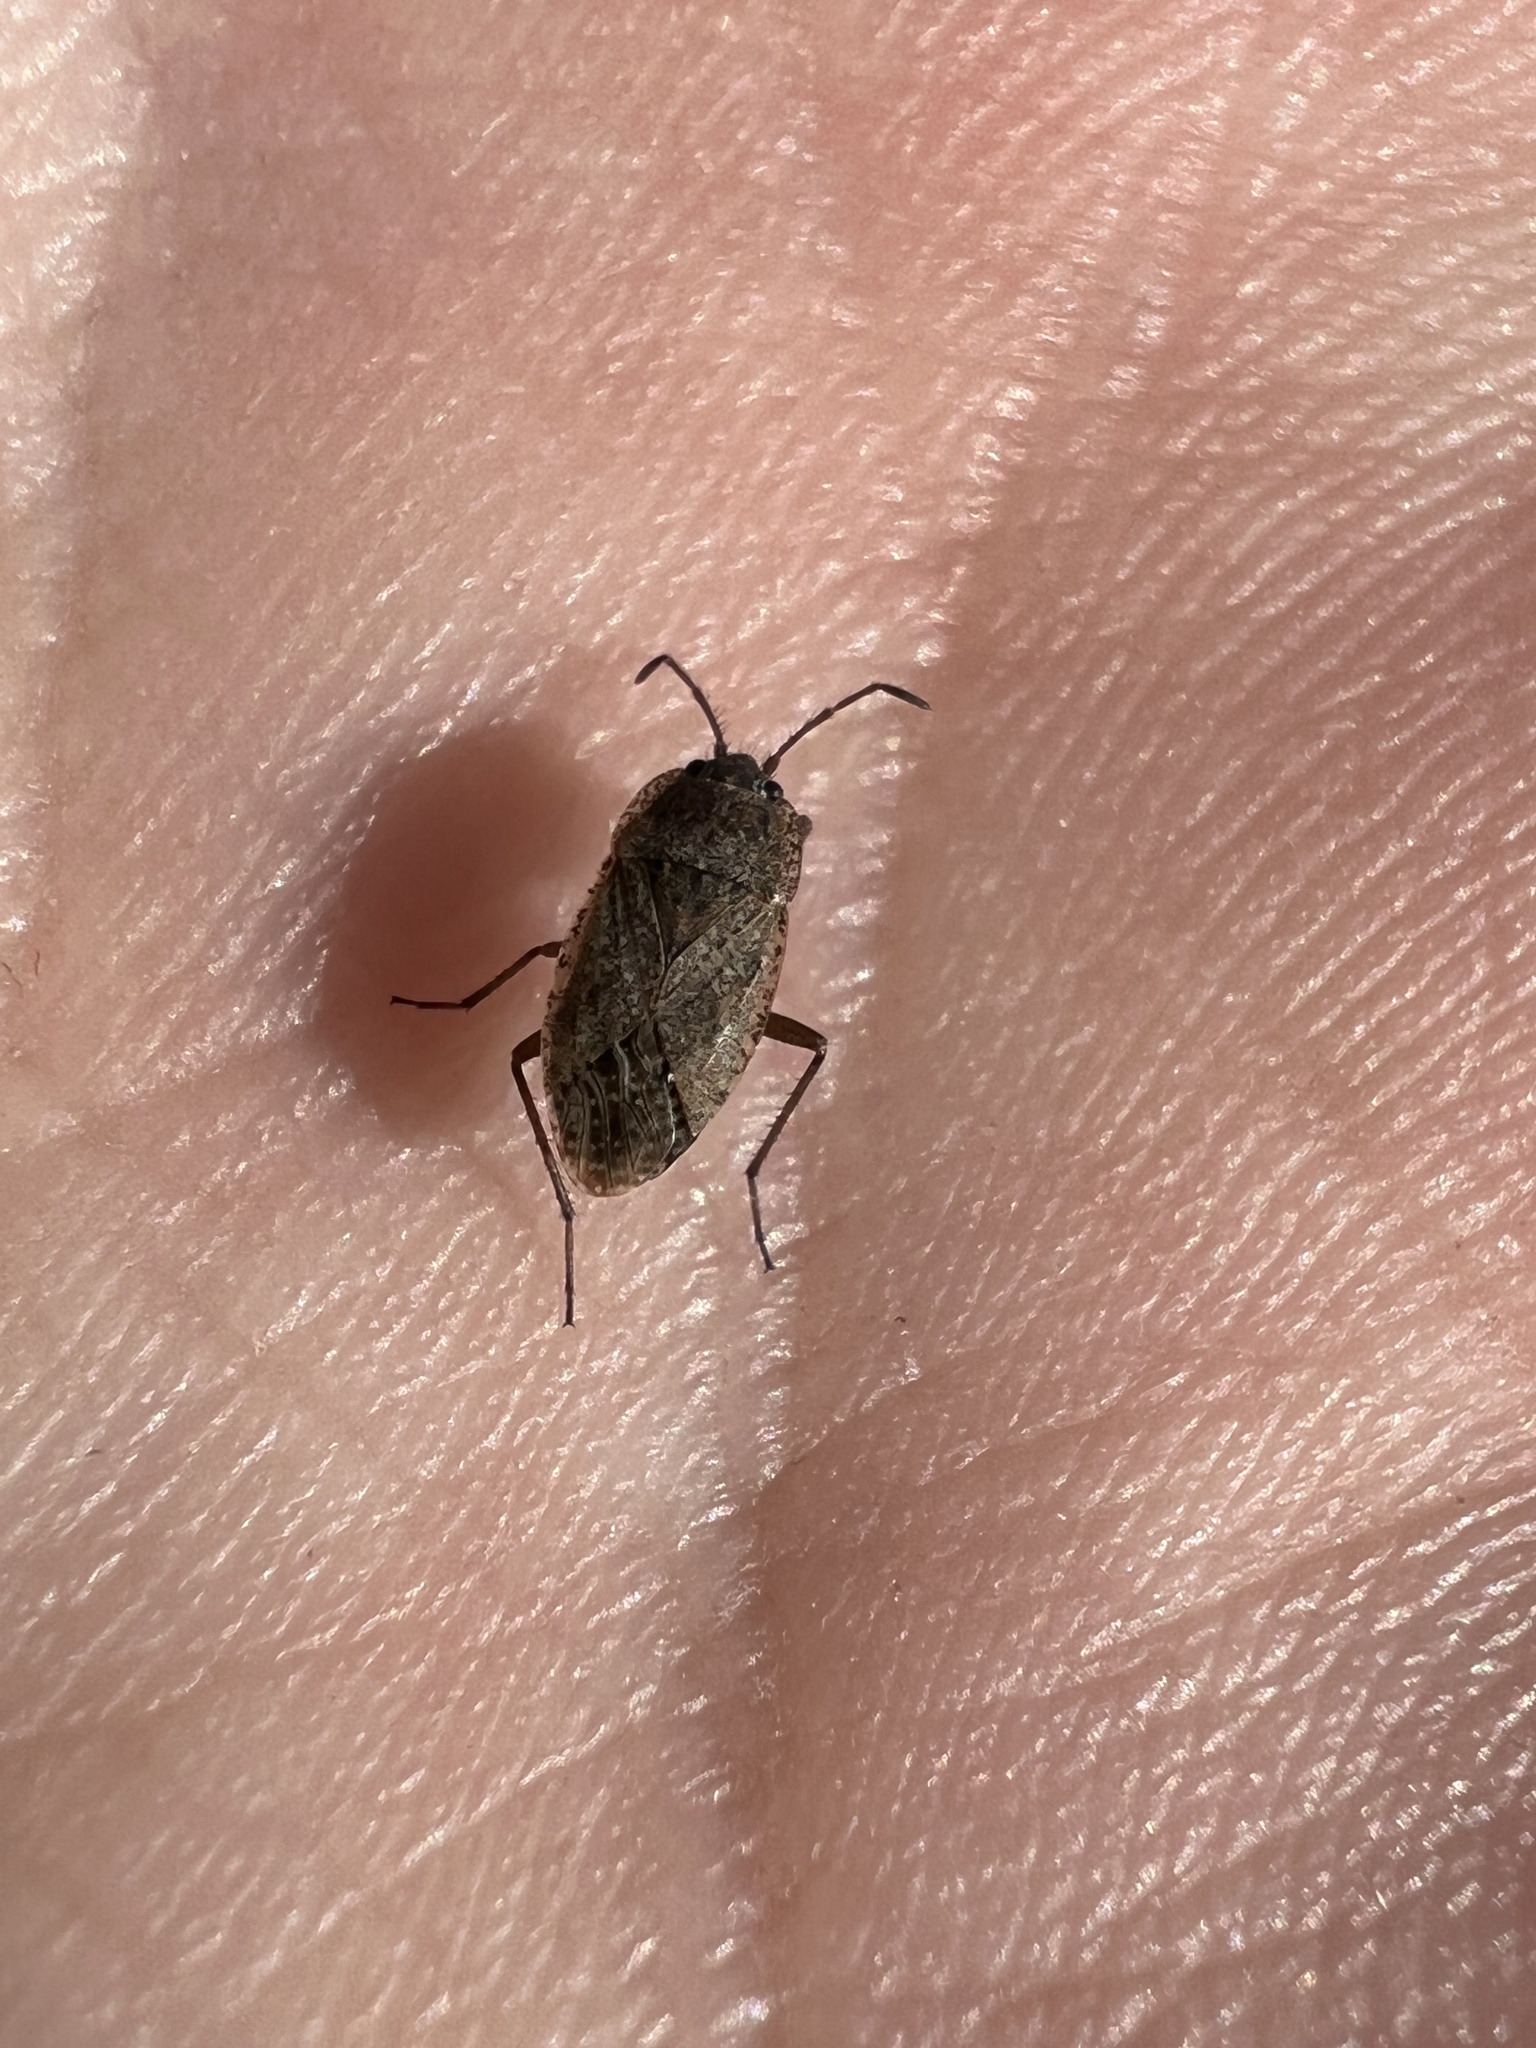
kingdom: Animalia
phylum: Arthropoda
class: Insecta
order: Hemiptera
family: Rhyparochromidae
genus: Emblethis
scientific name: Emblethis vicarius
